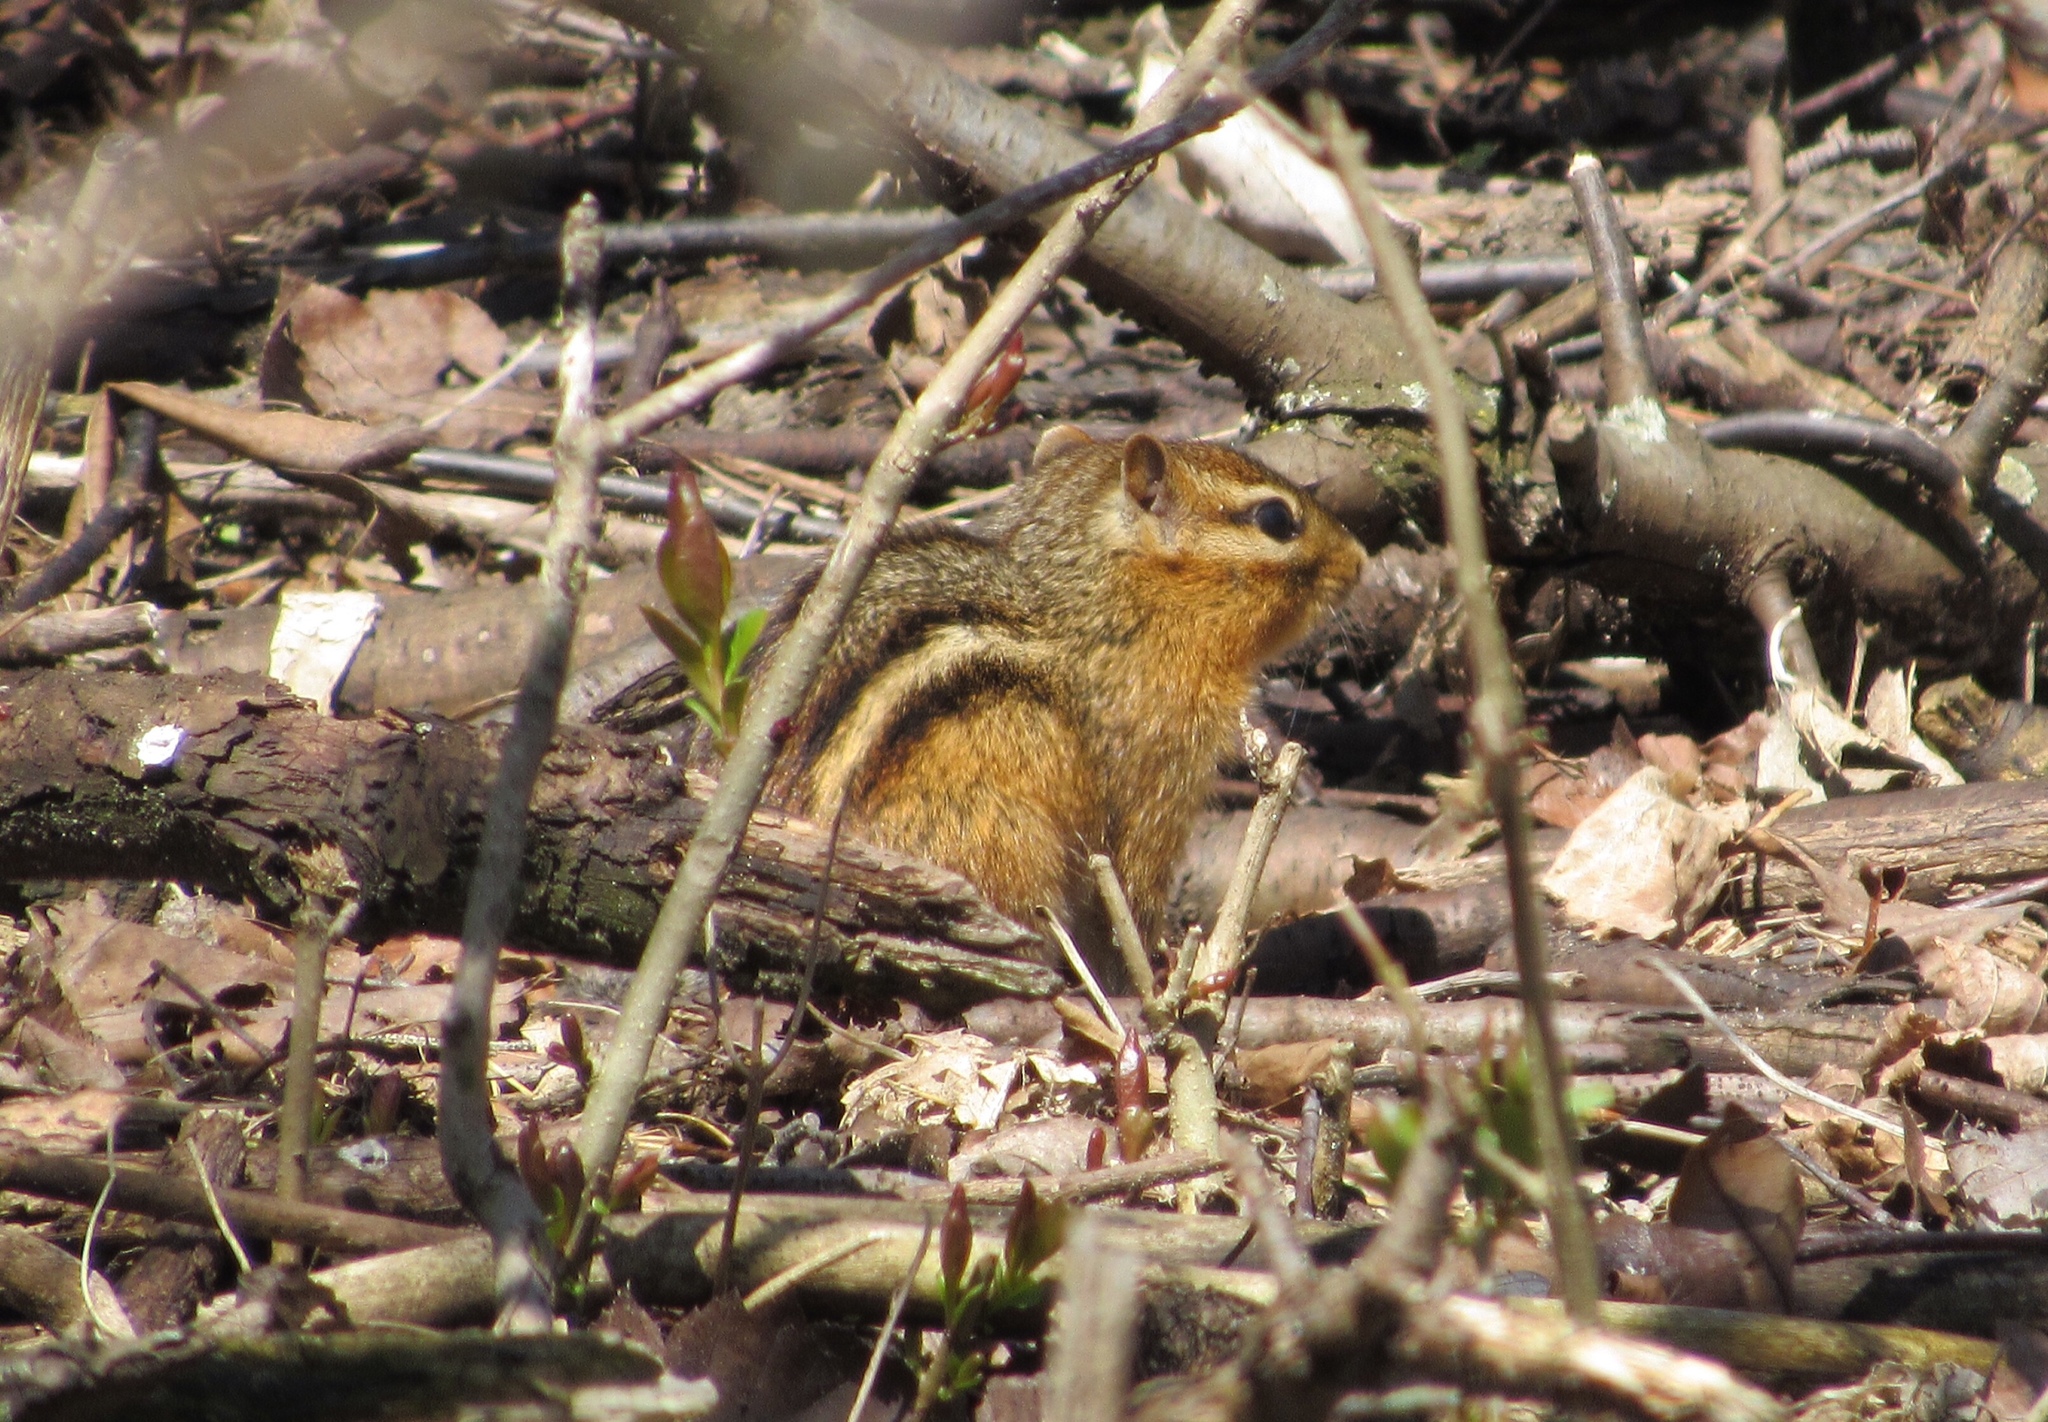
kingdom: Animalia
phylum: Chordata
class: Mammalia
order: Rodentia
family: Sciuridae
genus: Tamias
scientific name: Tamias striatus
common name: Eastern chipmunk
